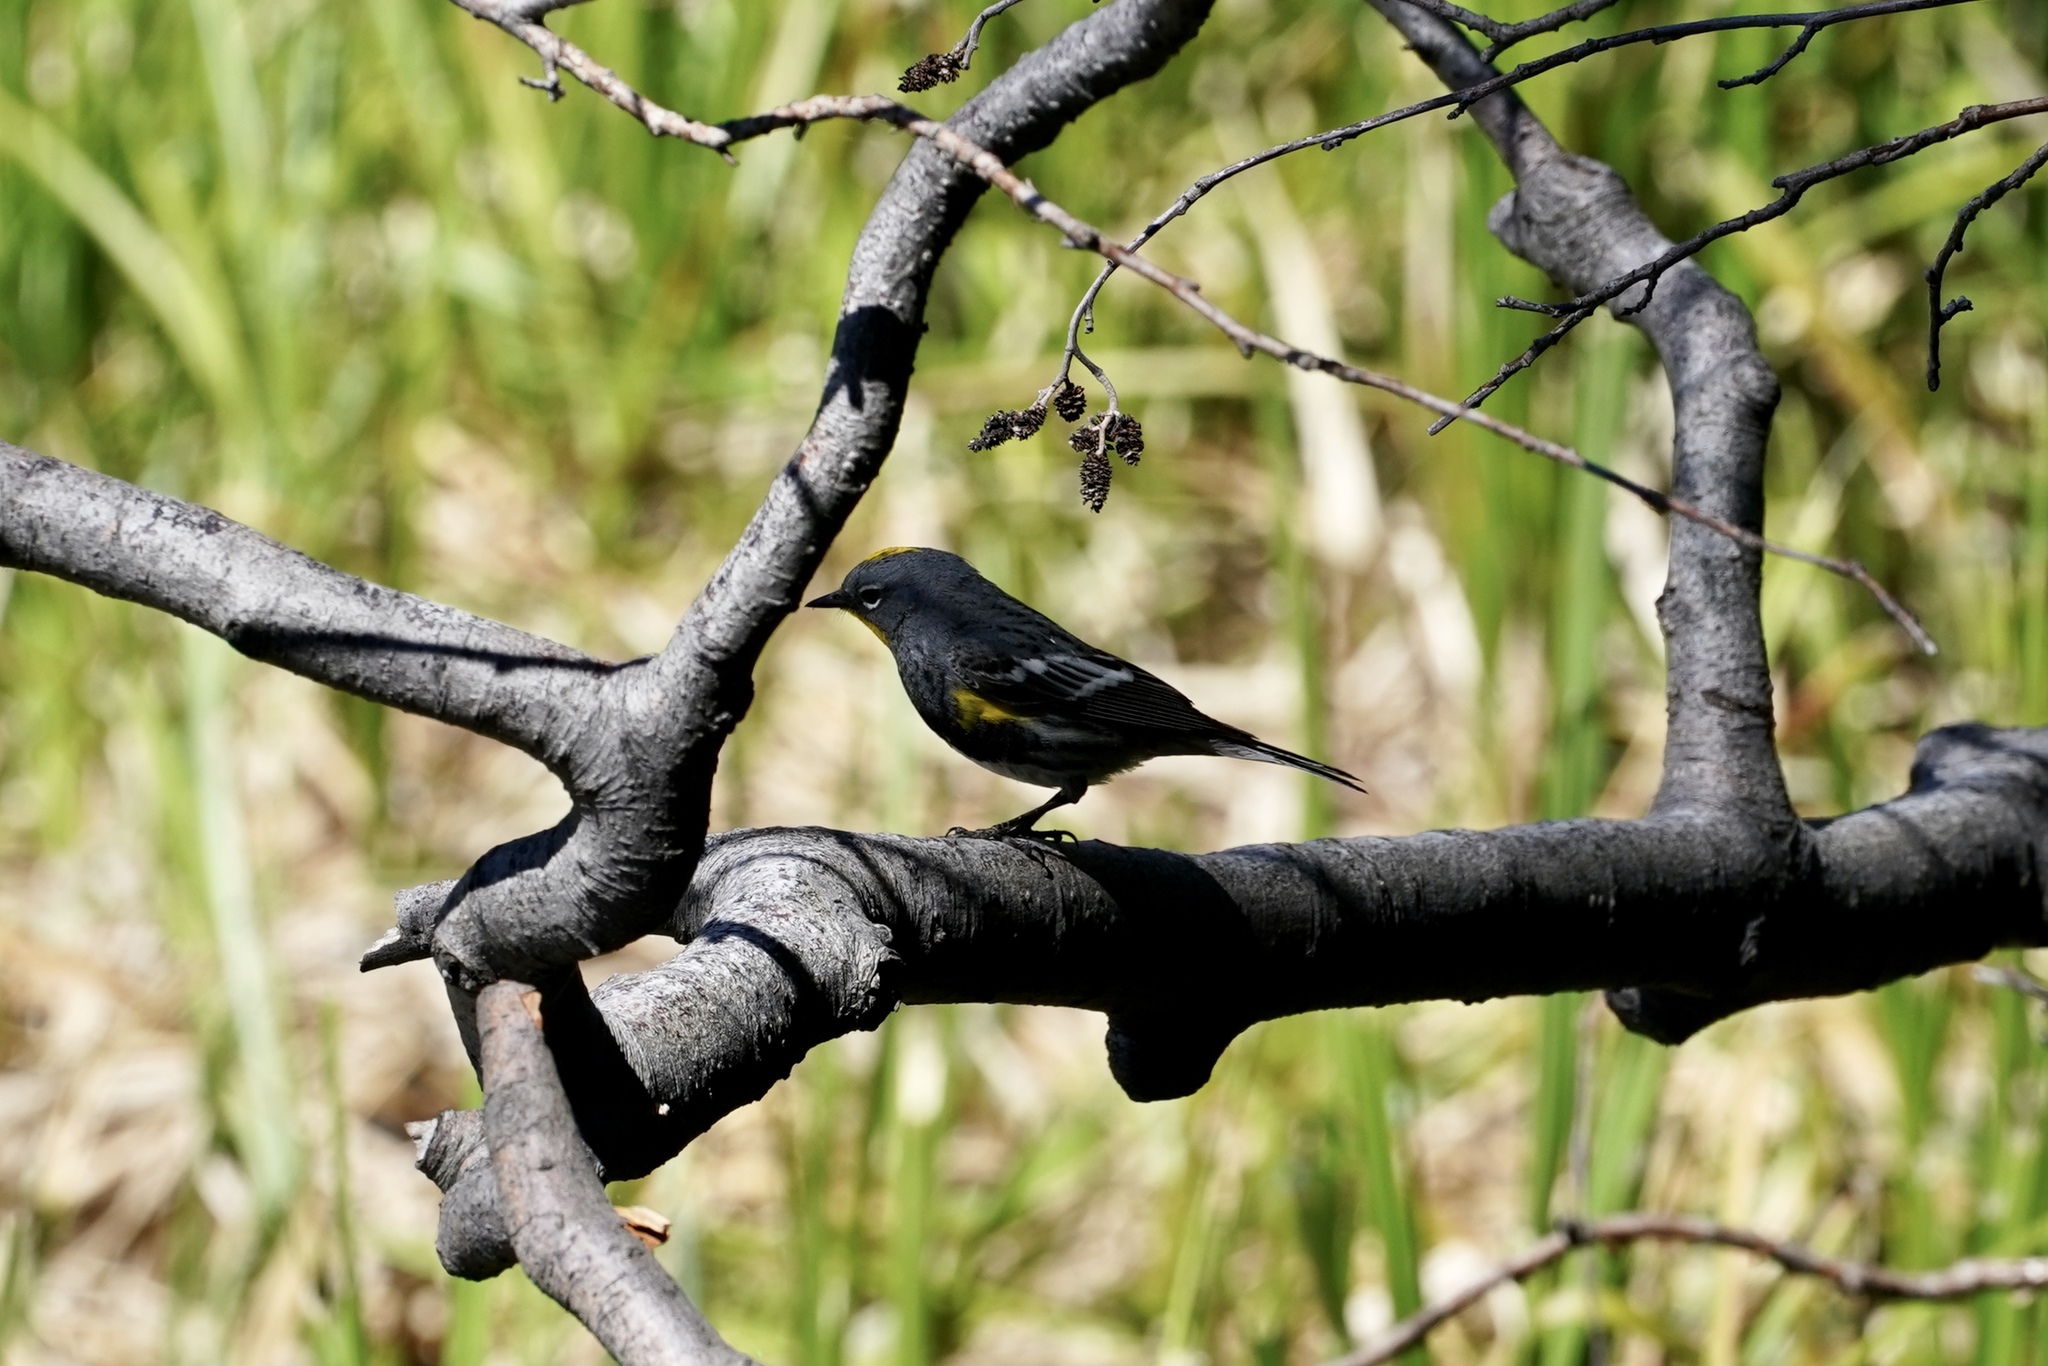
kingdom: Animalia
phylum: Chordata
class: Aves
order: Passeriformes
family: Parulidae
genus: Setophaga
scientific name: Setophaga auduboni
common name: Audubon's warbler
